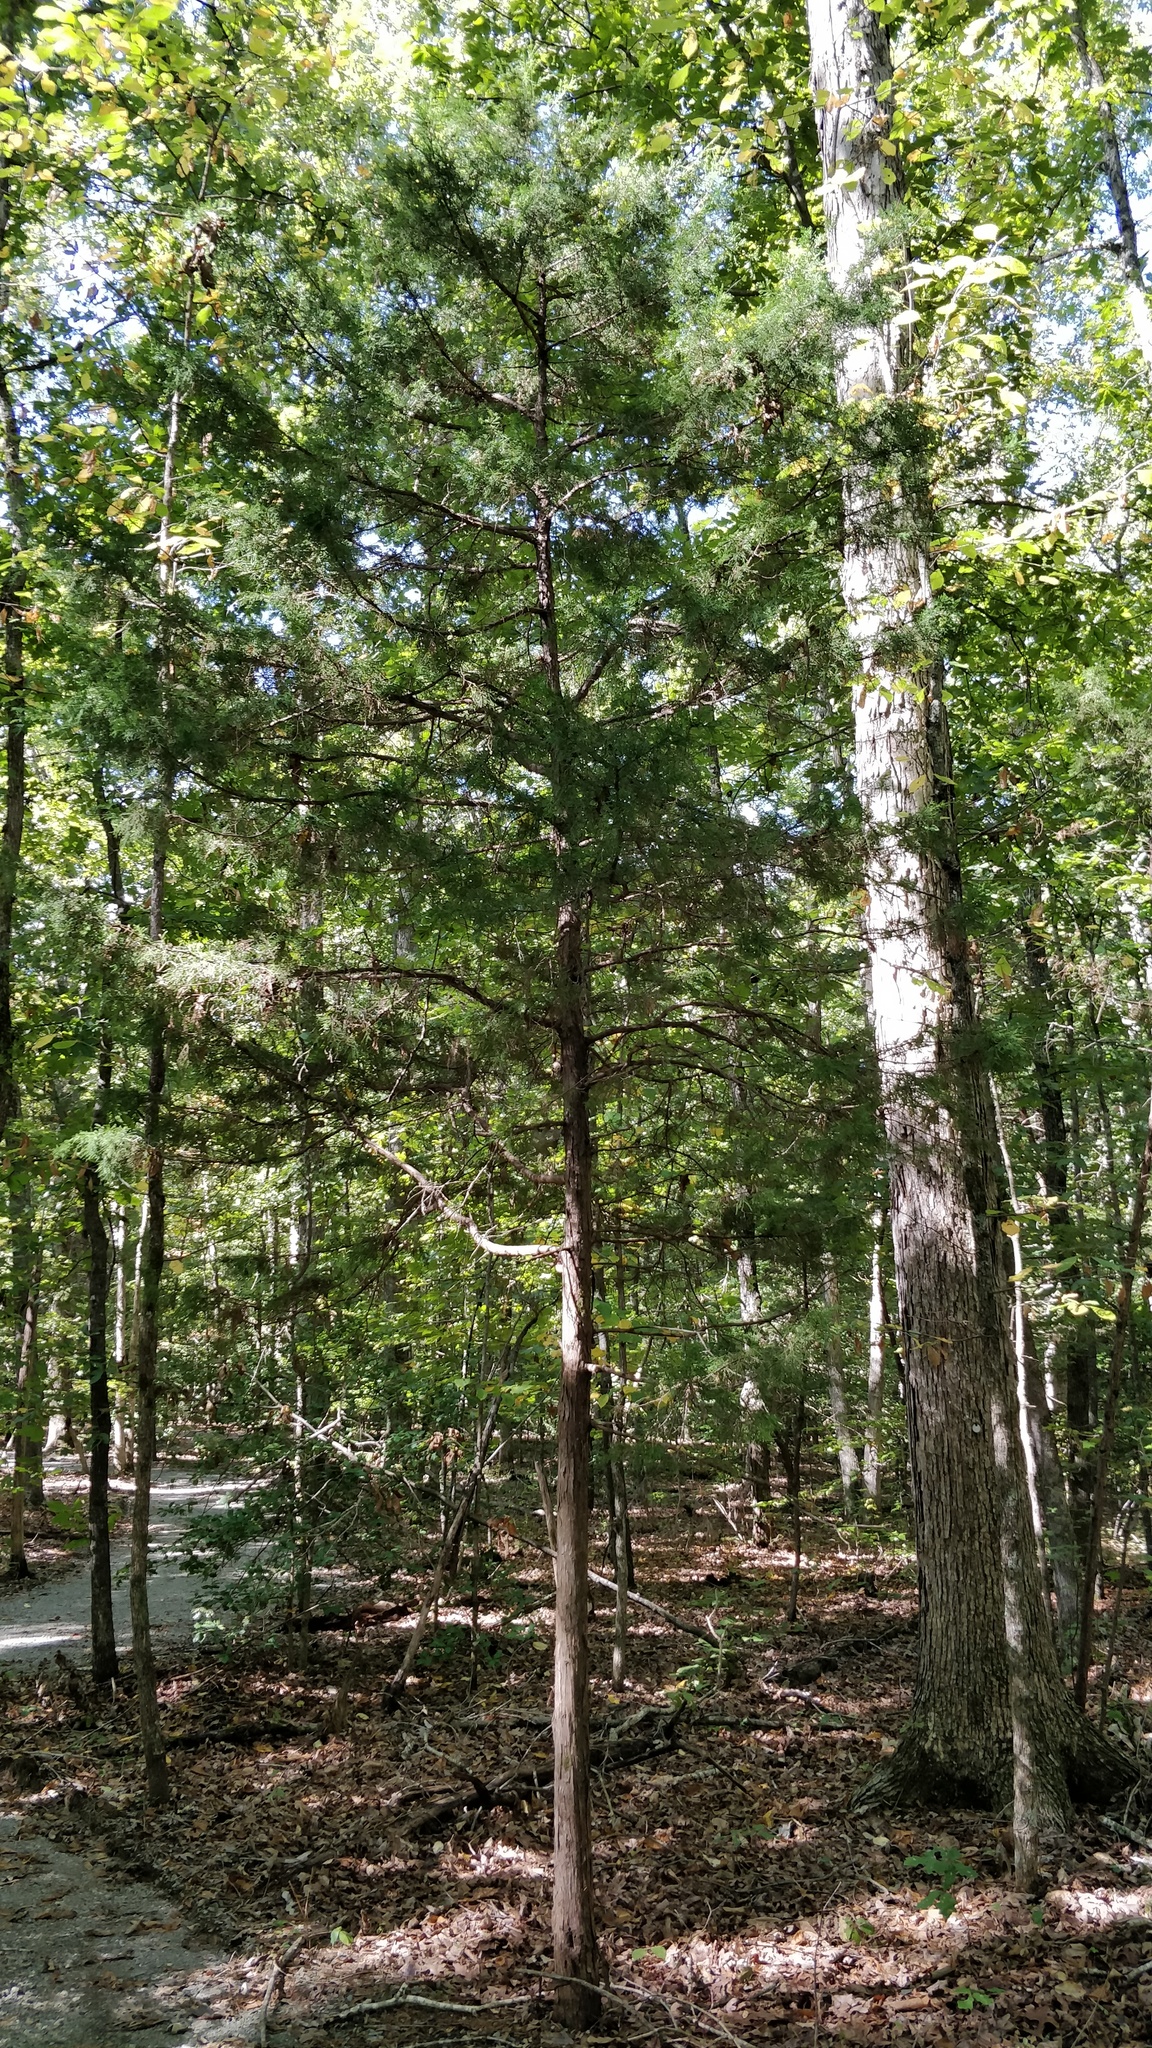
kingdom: Plantae
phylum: Tracheophyta
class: Pinopsida
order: Pinales
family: Cupressaceae
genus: Juniperus
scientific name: Juniperus virginiana
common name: Red juniper
